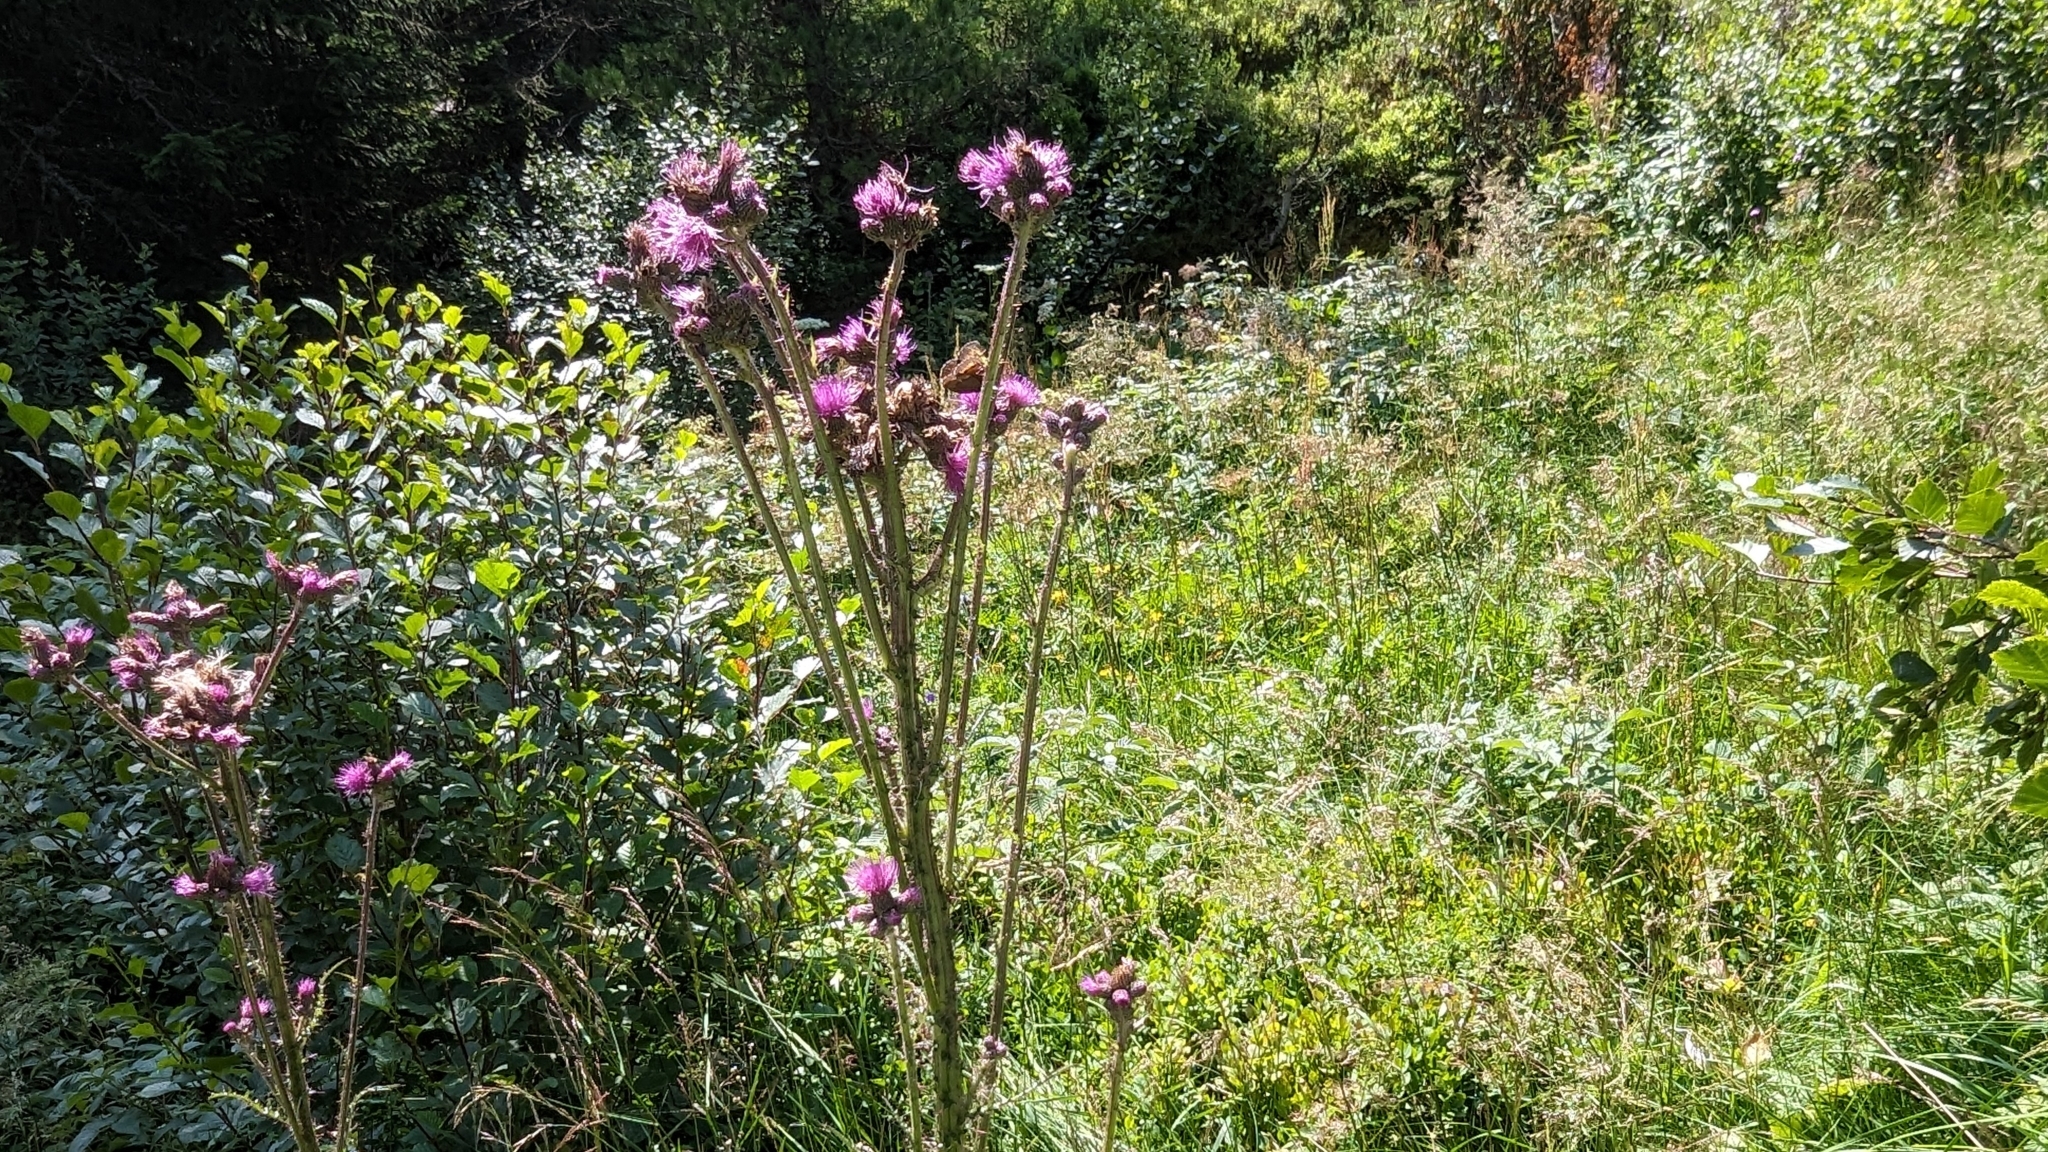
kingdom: Plantae
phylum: Tracheophyta
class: Magnoliopsida
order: Asterales
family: Asteraceae
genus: Cirsium
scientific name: Cirsium palustre
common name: Marsh thistle
